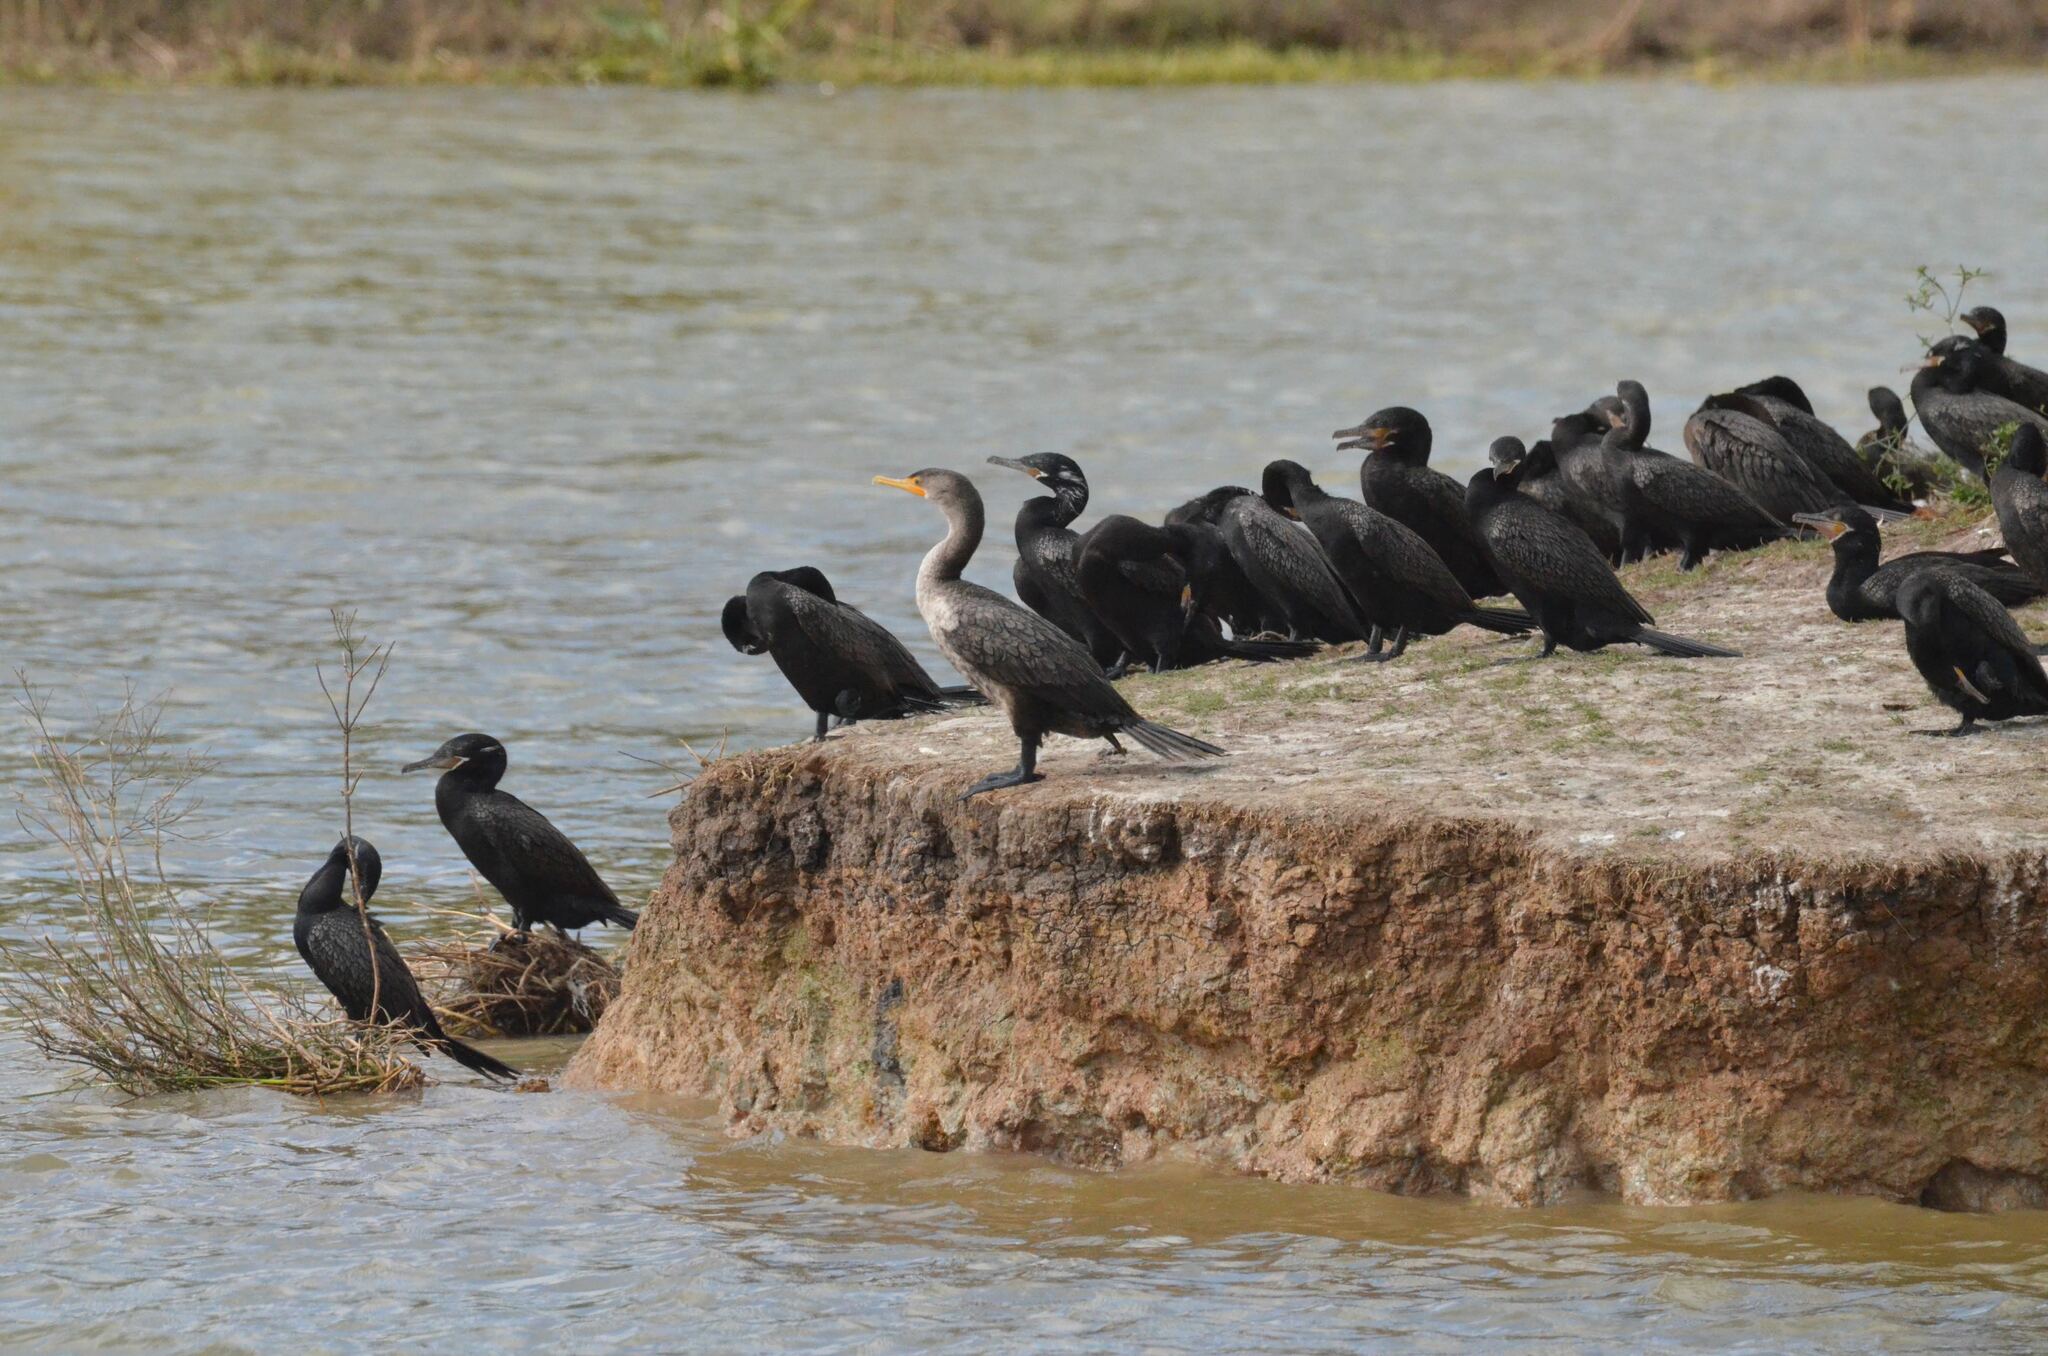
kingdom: Animalia
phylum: Chordata
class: Aves
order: Suliformes
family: Phalacrocoracidae
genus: Phalacrocorax
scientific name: Phalacrocorax brasilianus
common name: Neotropic cormorant
